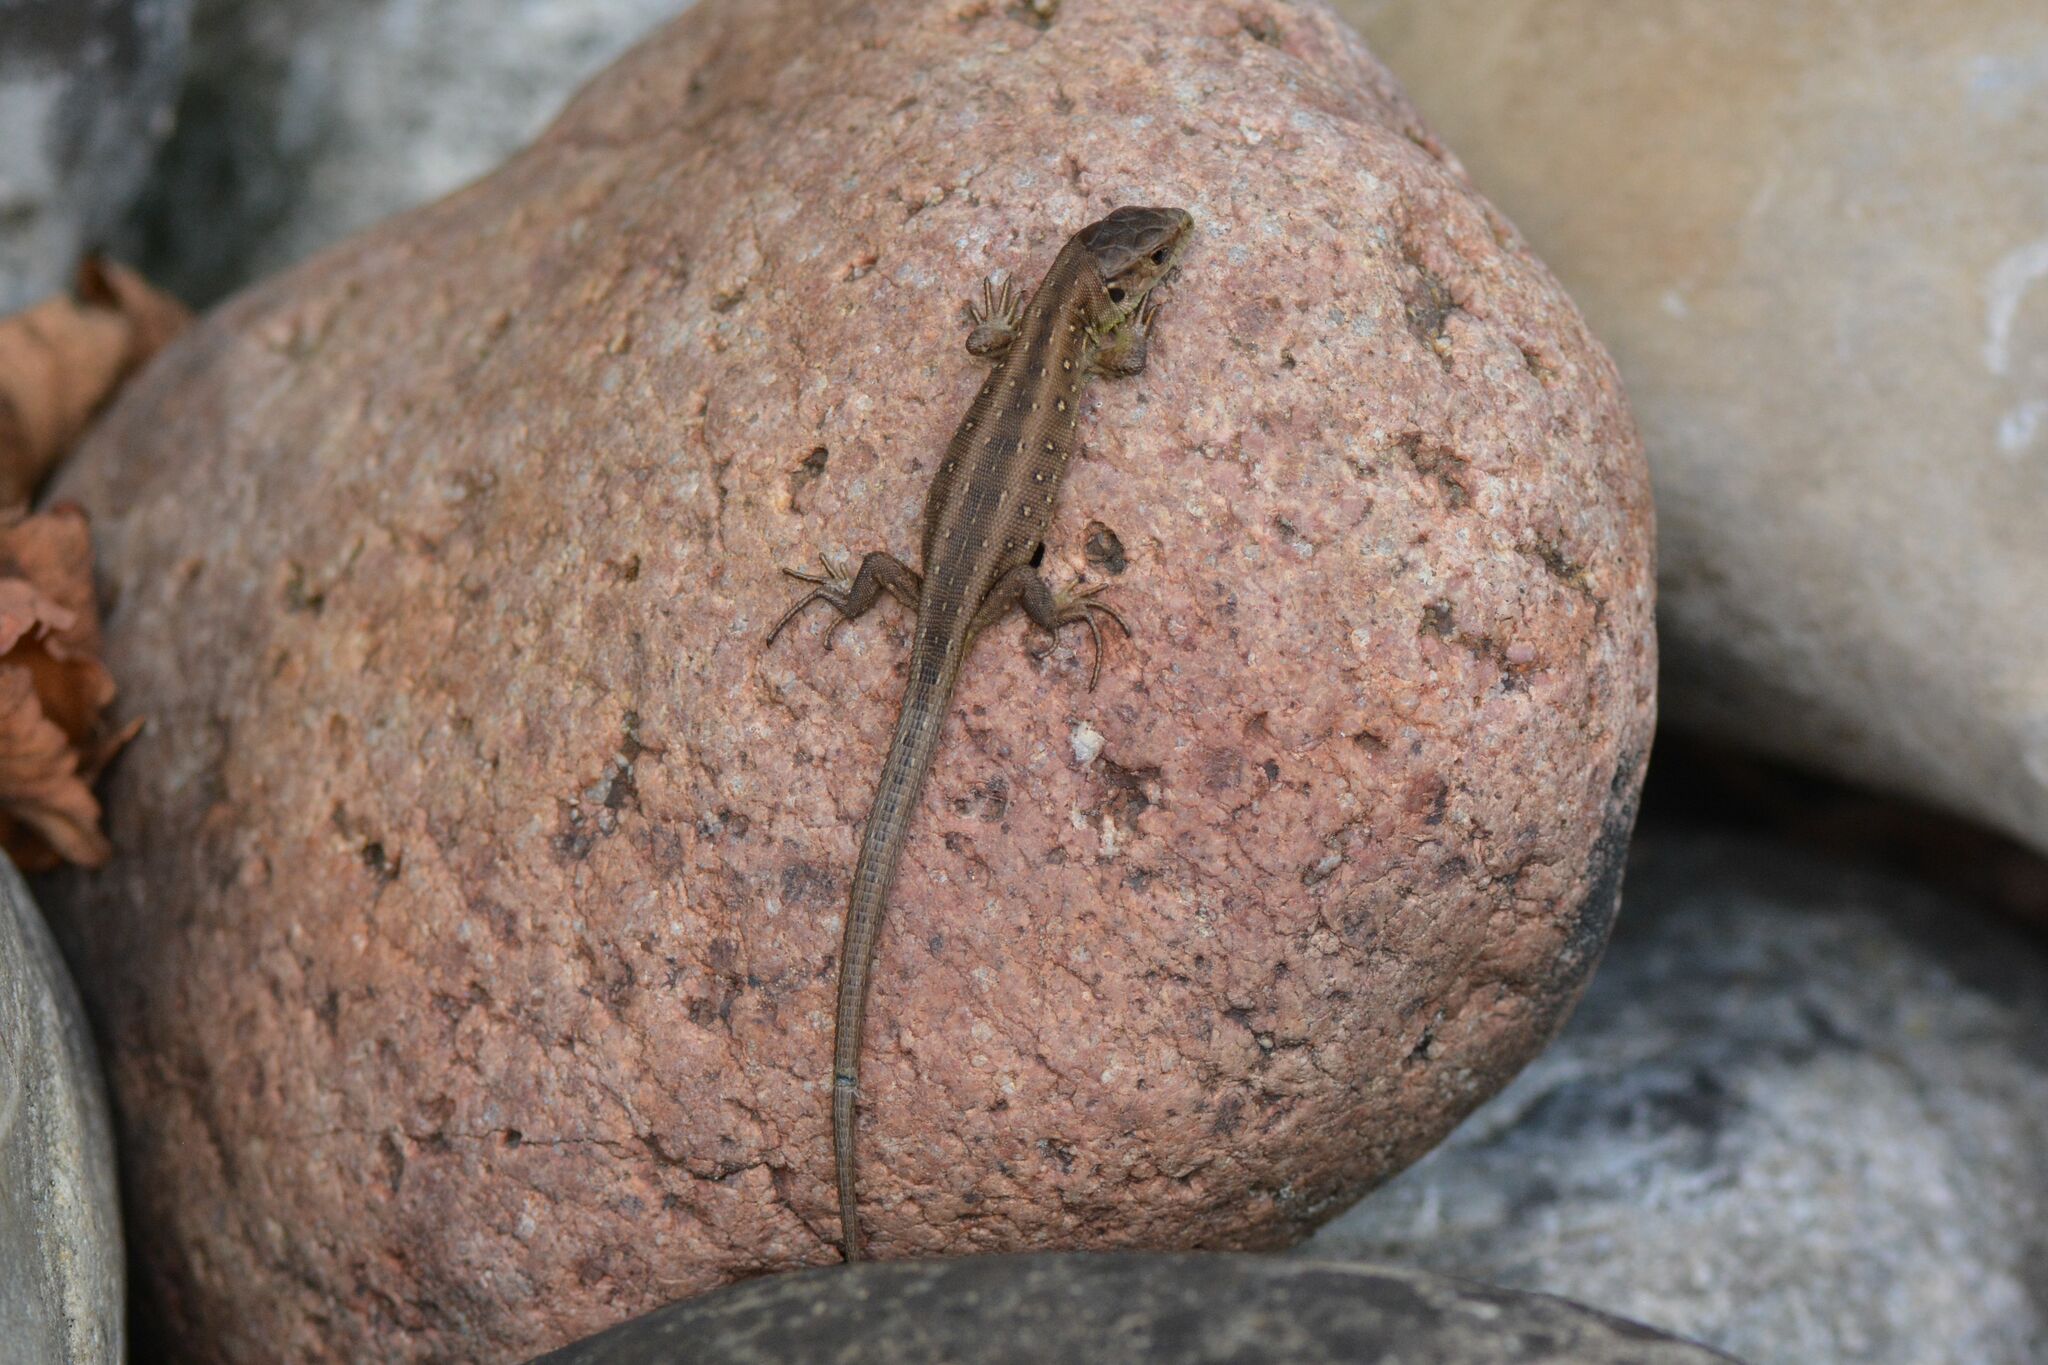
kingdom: Animalia
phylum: Chordata
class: Squamata
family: Lacertidae
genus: Lacerta
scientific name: Lacerta agilis
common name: Sand lizard
